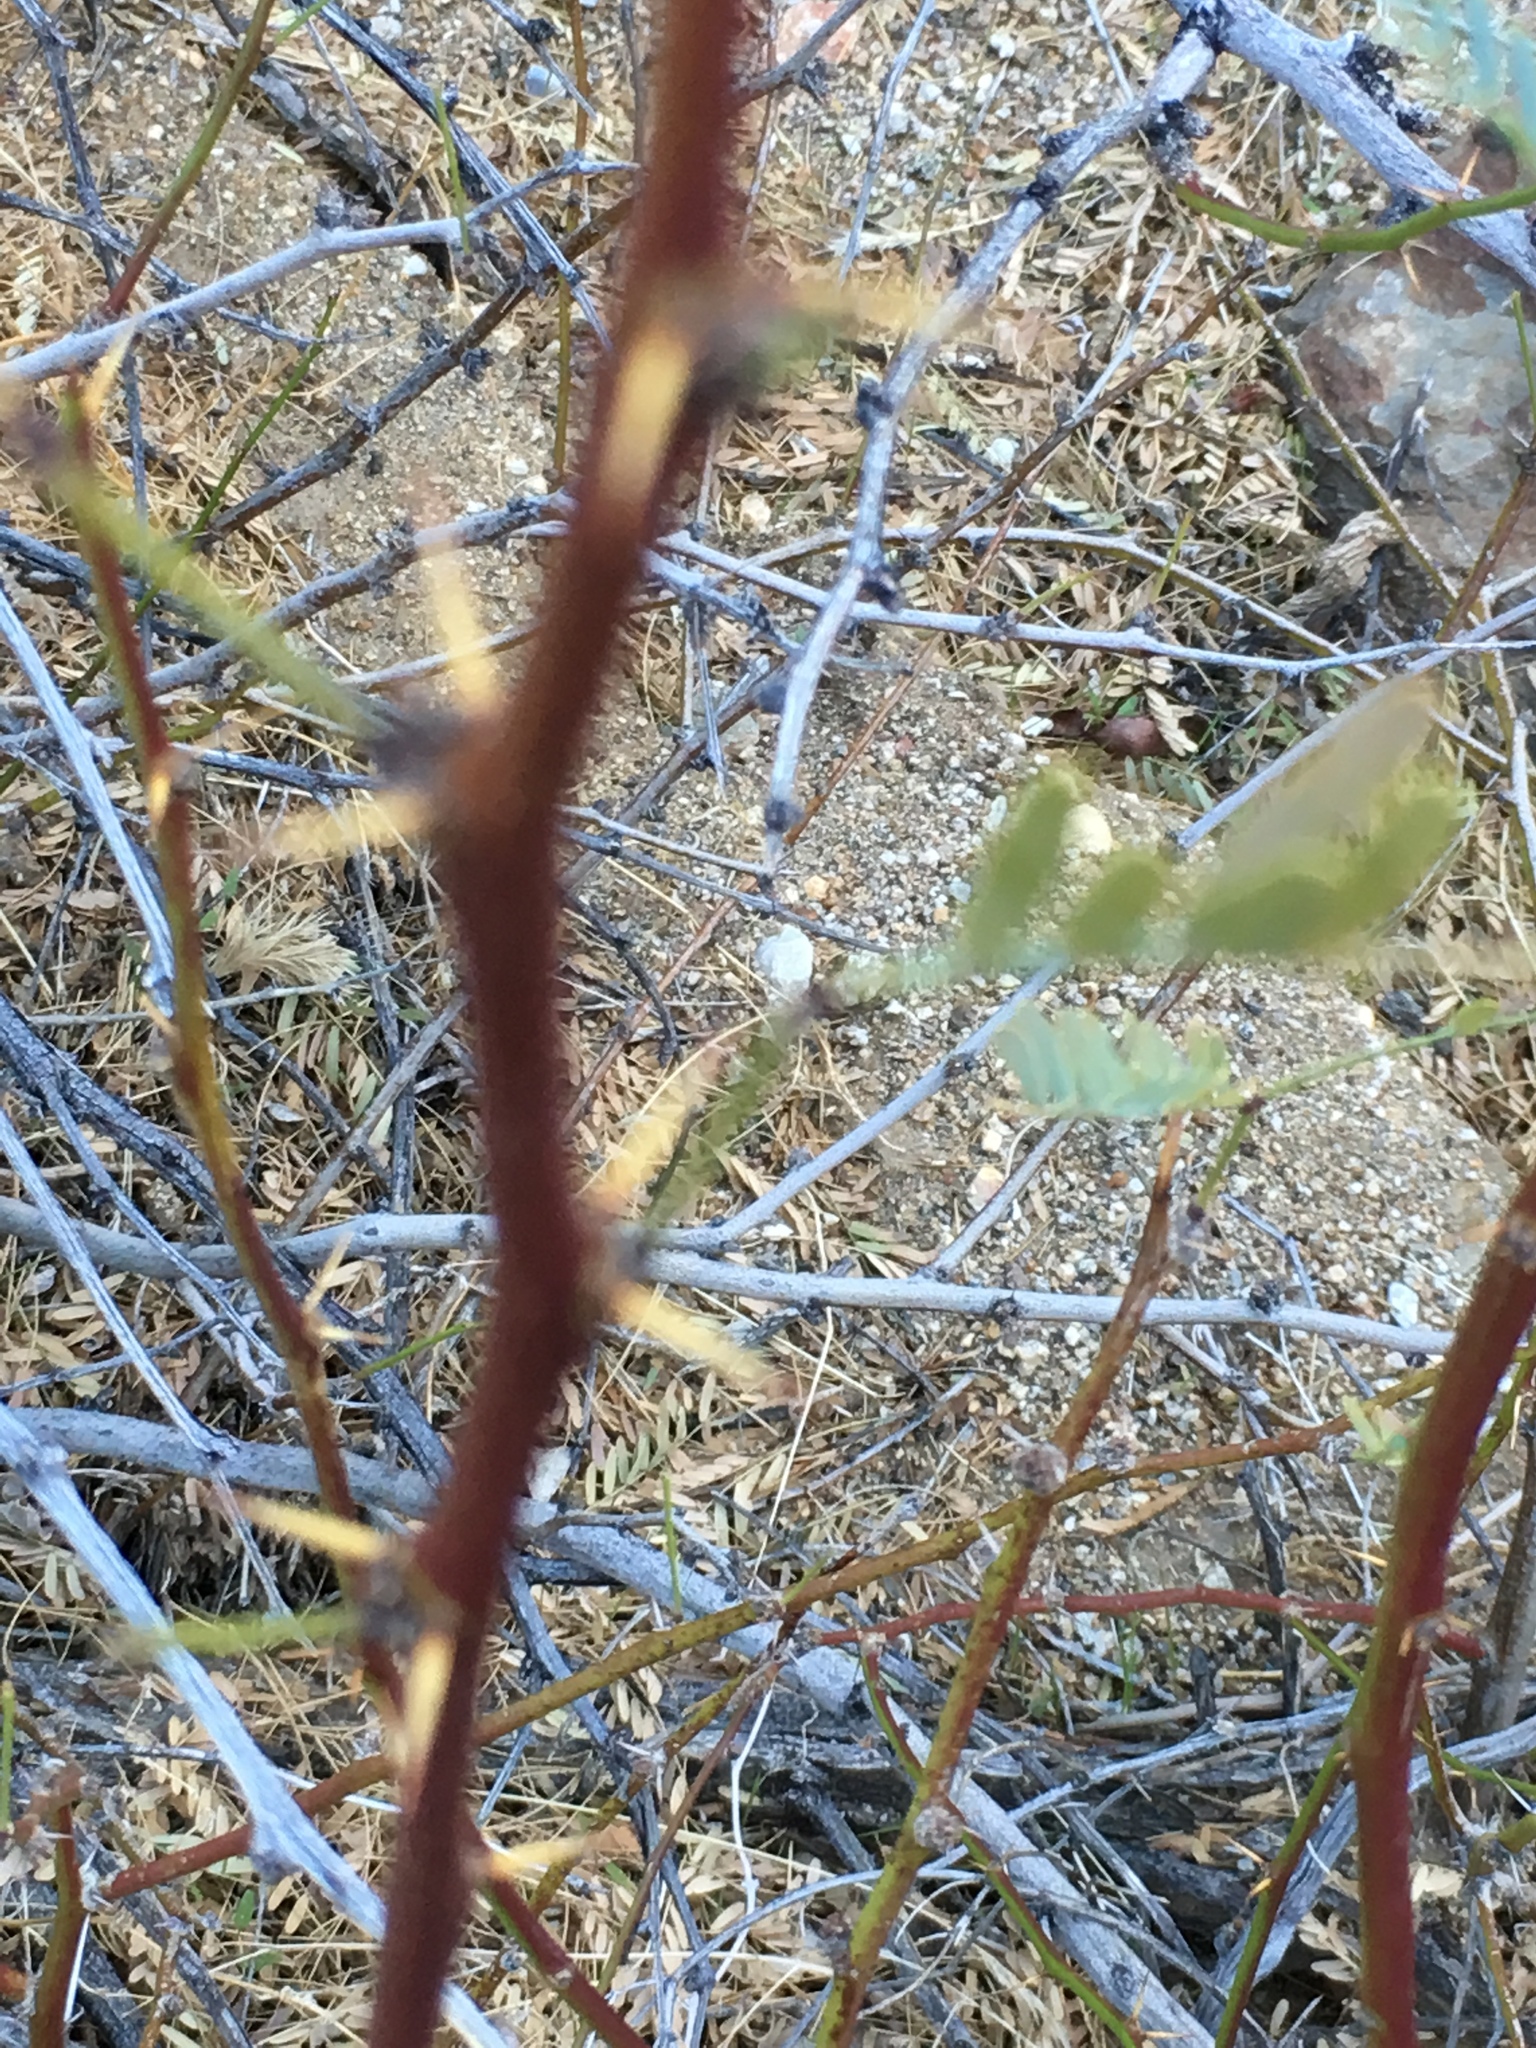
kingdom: Plantae
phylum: Tracheophyta
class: Magnoliopsida
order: Fabales
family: Fabaceae
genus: Prosopis
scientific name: Prosopis pubescens
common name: Screw-bean
